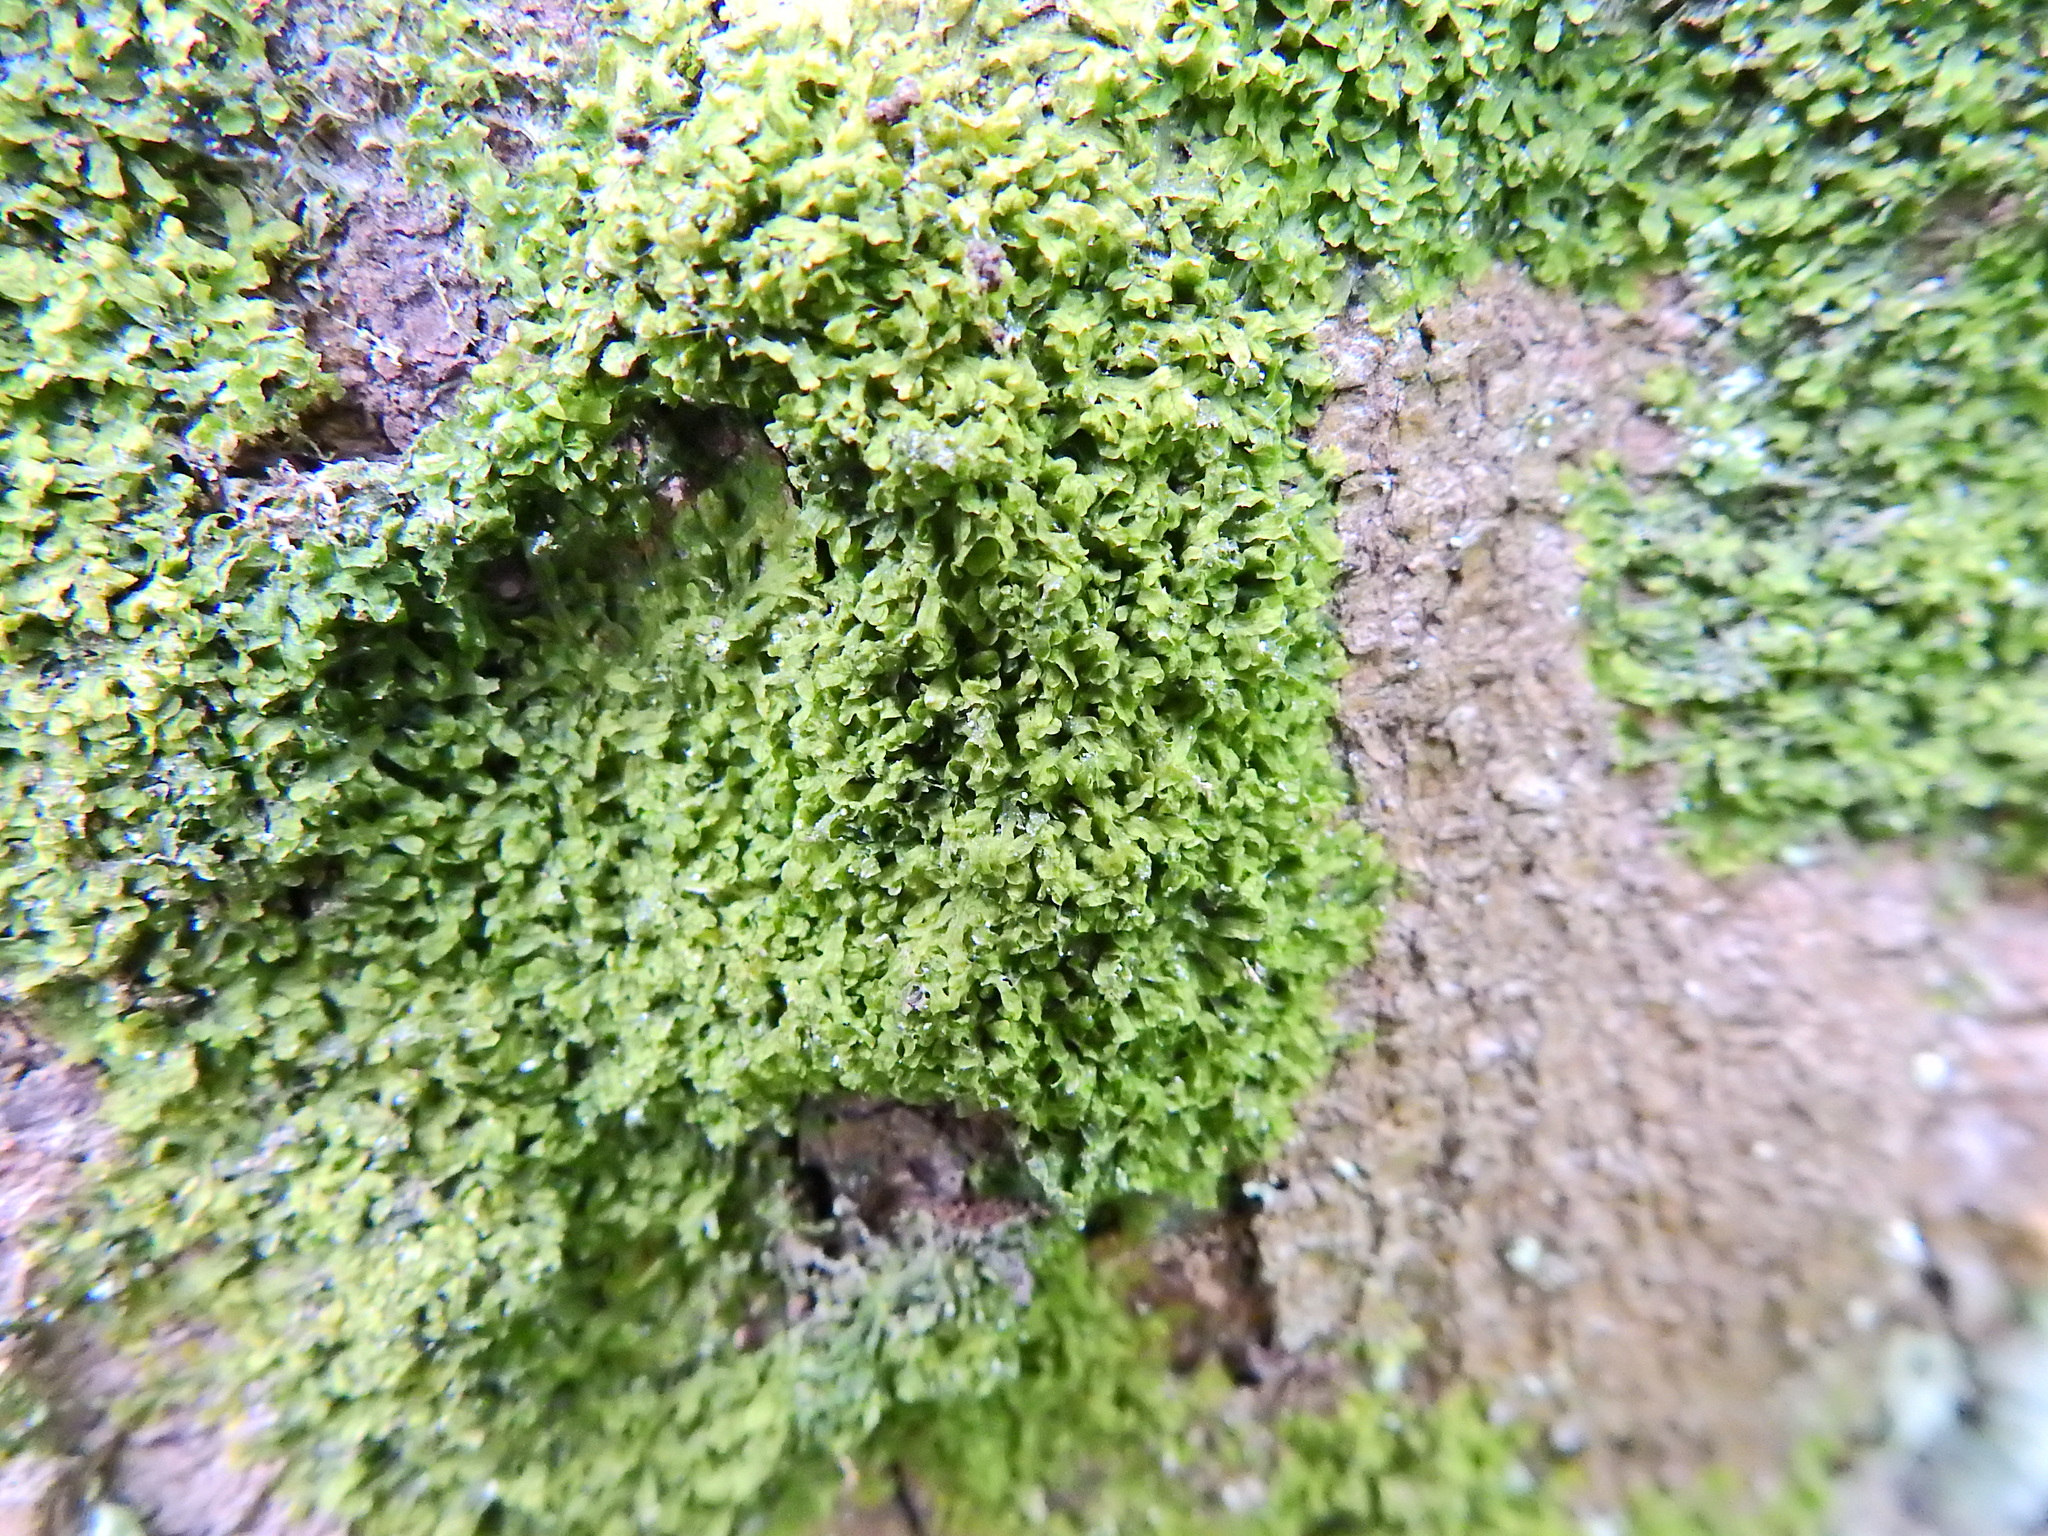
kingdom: Plantae
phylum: Marchantiophyta
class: Jungermanniopsida
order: Metzgeriales
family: Metzgeriaceae
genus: Metzgeria
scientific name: Metzgeria furcata
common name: Forked veilwort
